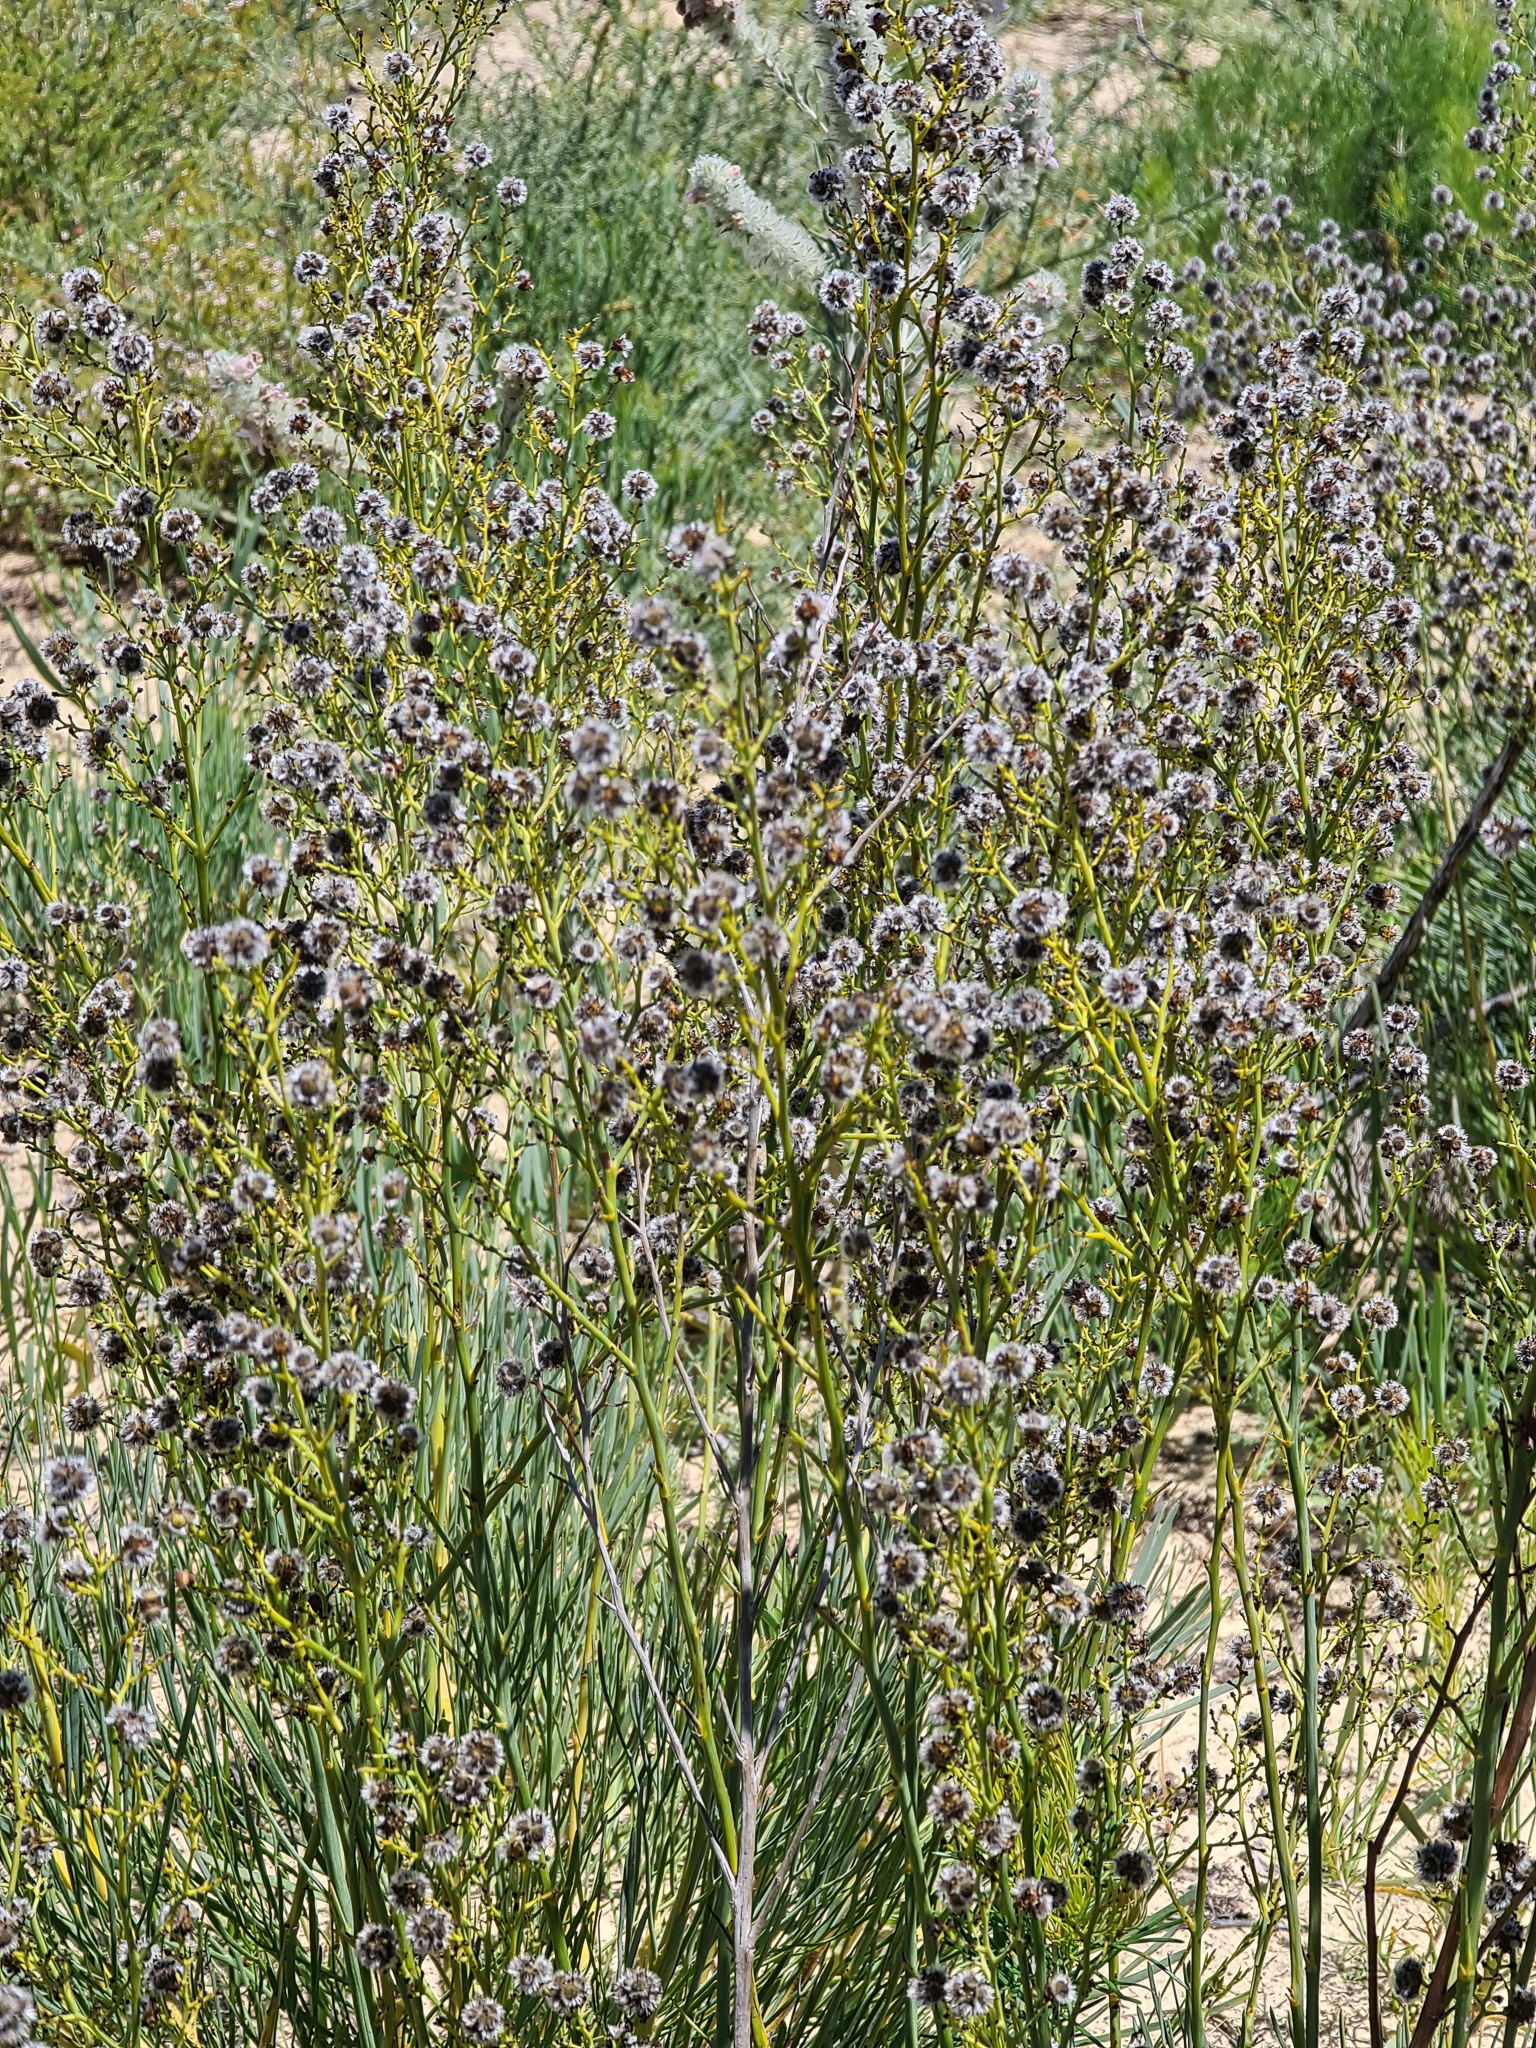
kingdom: Plantae
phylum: Tracheophyta
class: Magnoliopsida
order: Proteales
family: Proteaceae
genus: Stirlingia
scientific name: Stirlingia latifolia
